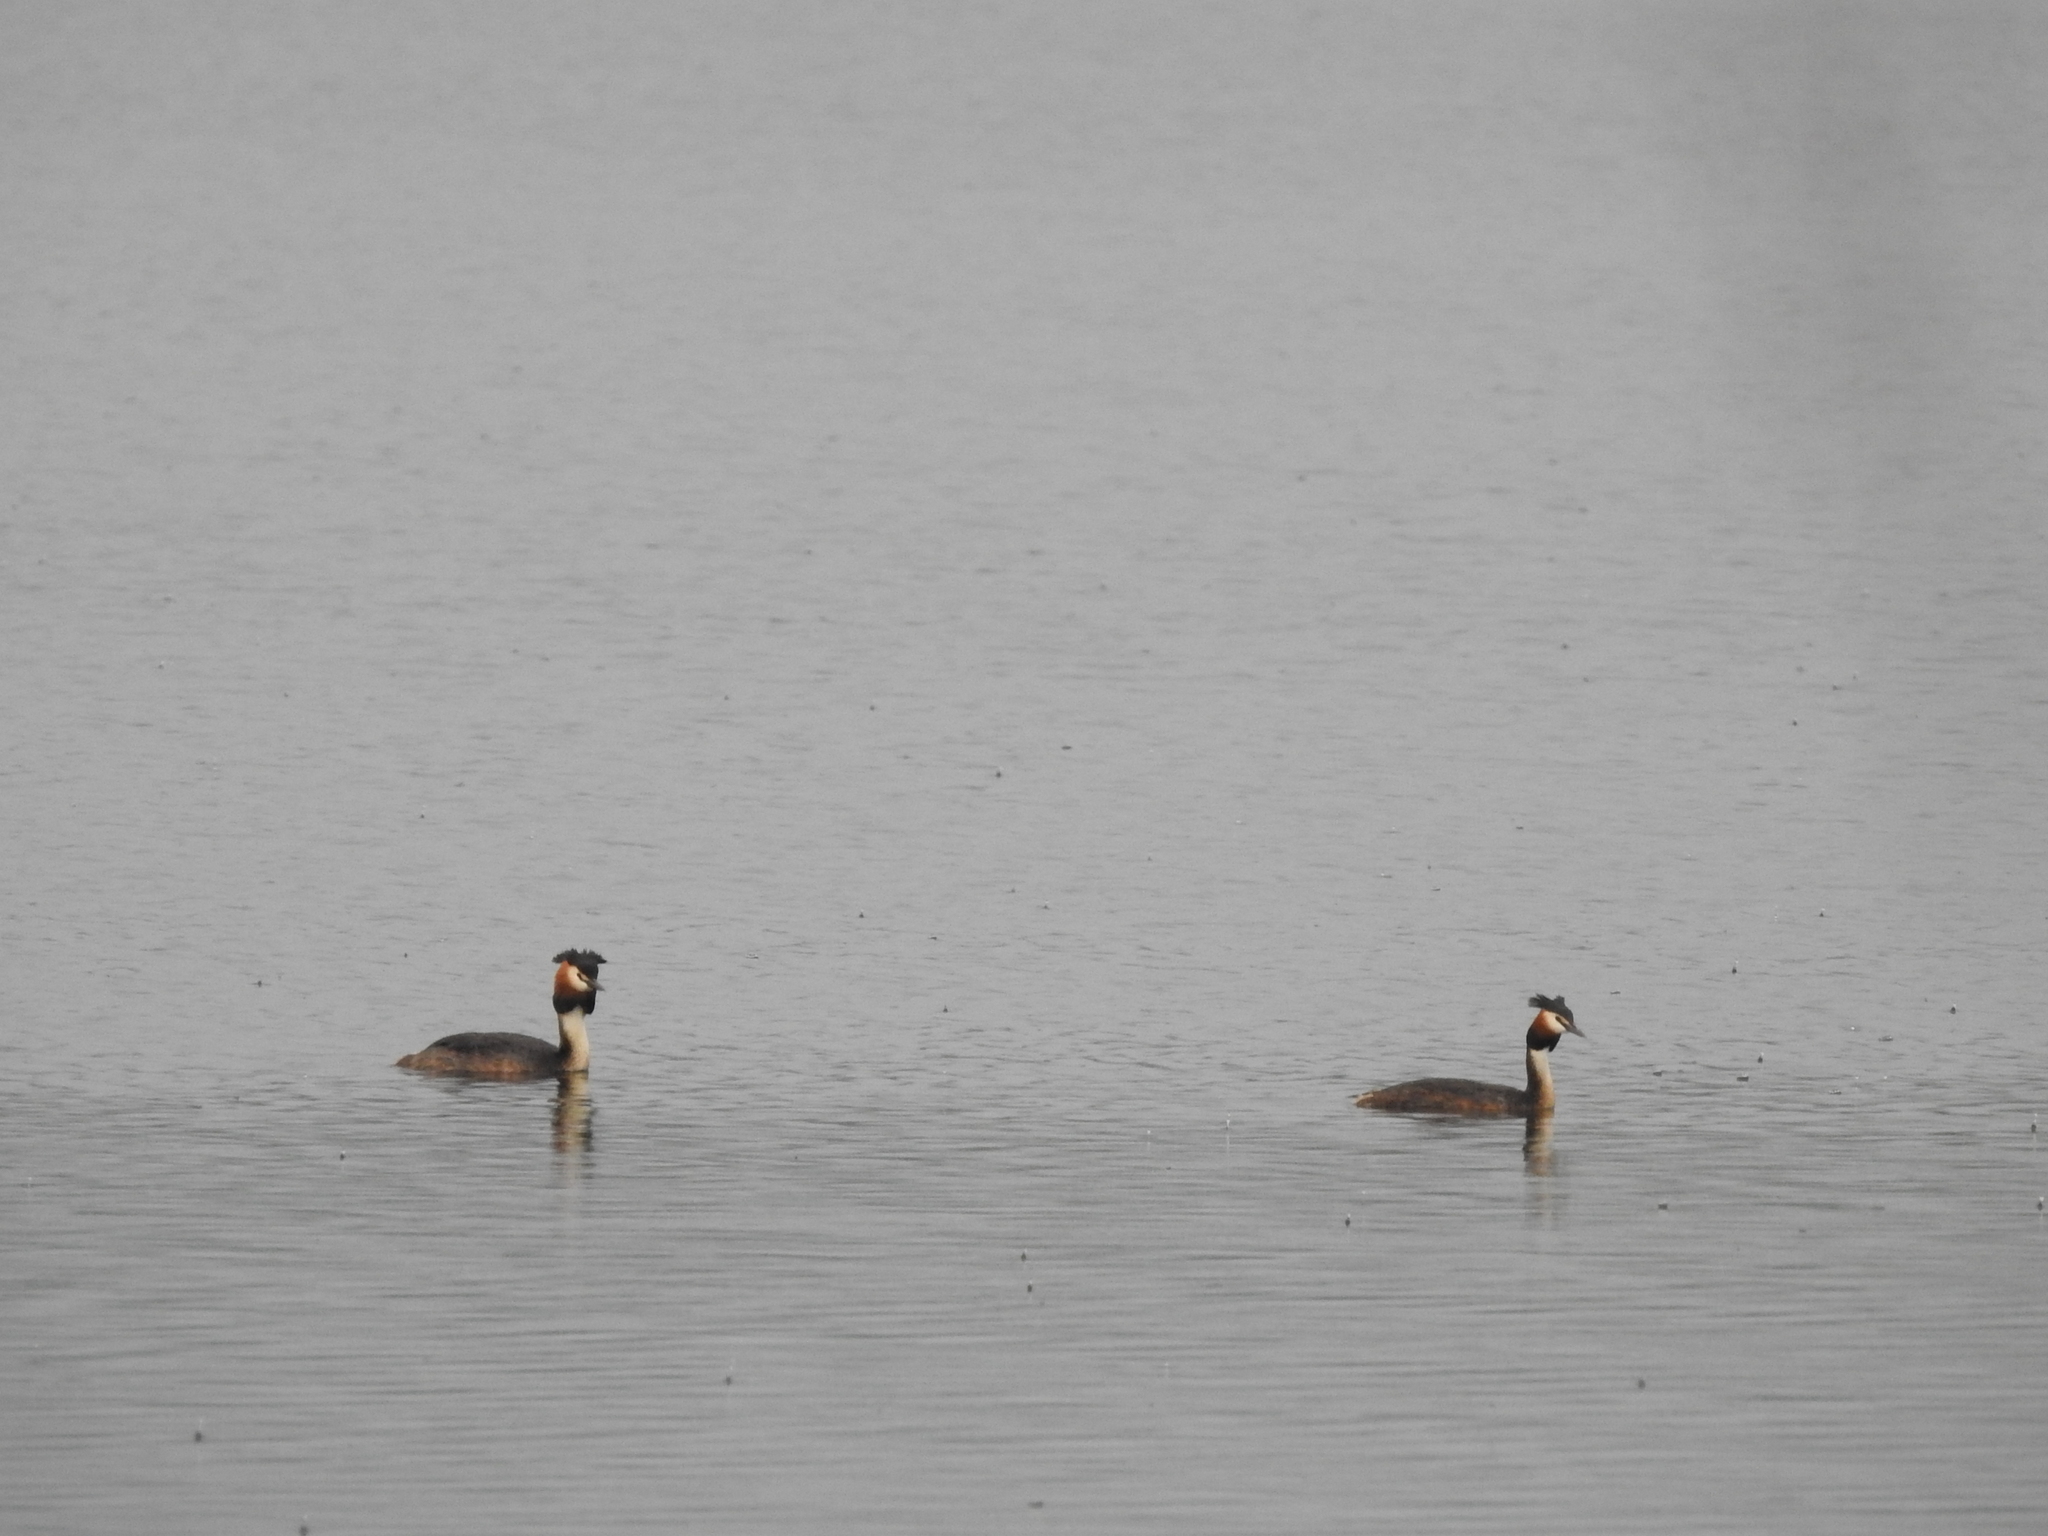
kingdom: Animalia
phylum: Chordata
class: Aves
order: Podicipediformes
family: Podicipedidae
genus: Podiceps
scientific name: Podiceps cristatus
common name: Great crested grebe
